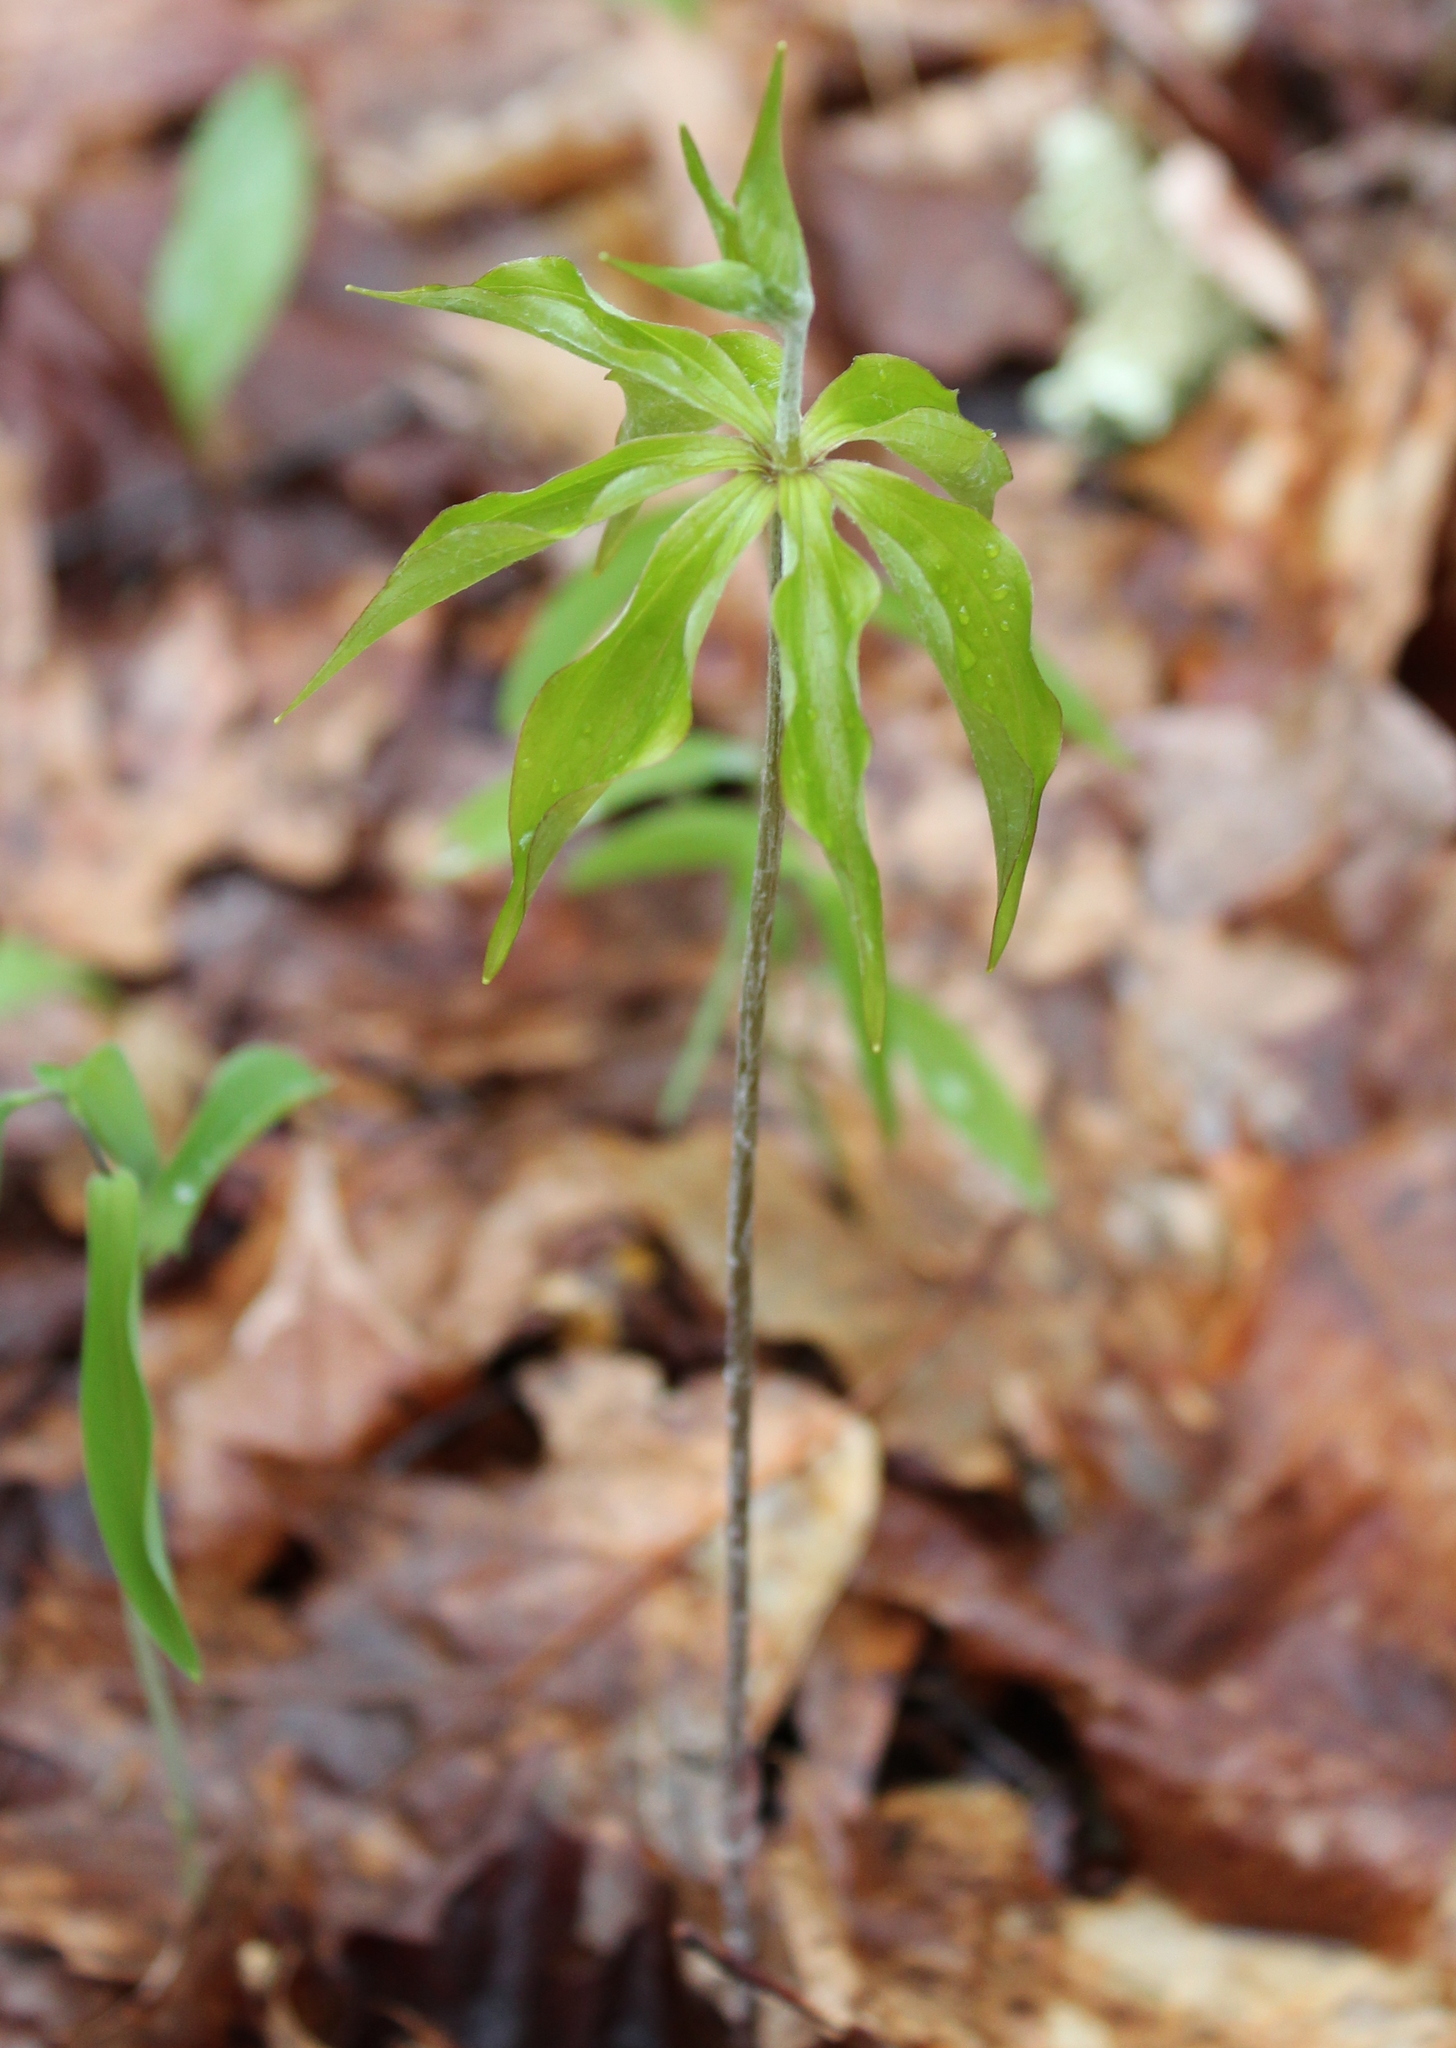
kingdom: Plantae
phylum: Tracheophyta
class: Liliopsida
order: Liliales
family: Liliaceae
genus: Medeola
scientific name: Medeola virginiana
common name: Indian cucumber-root
